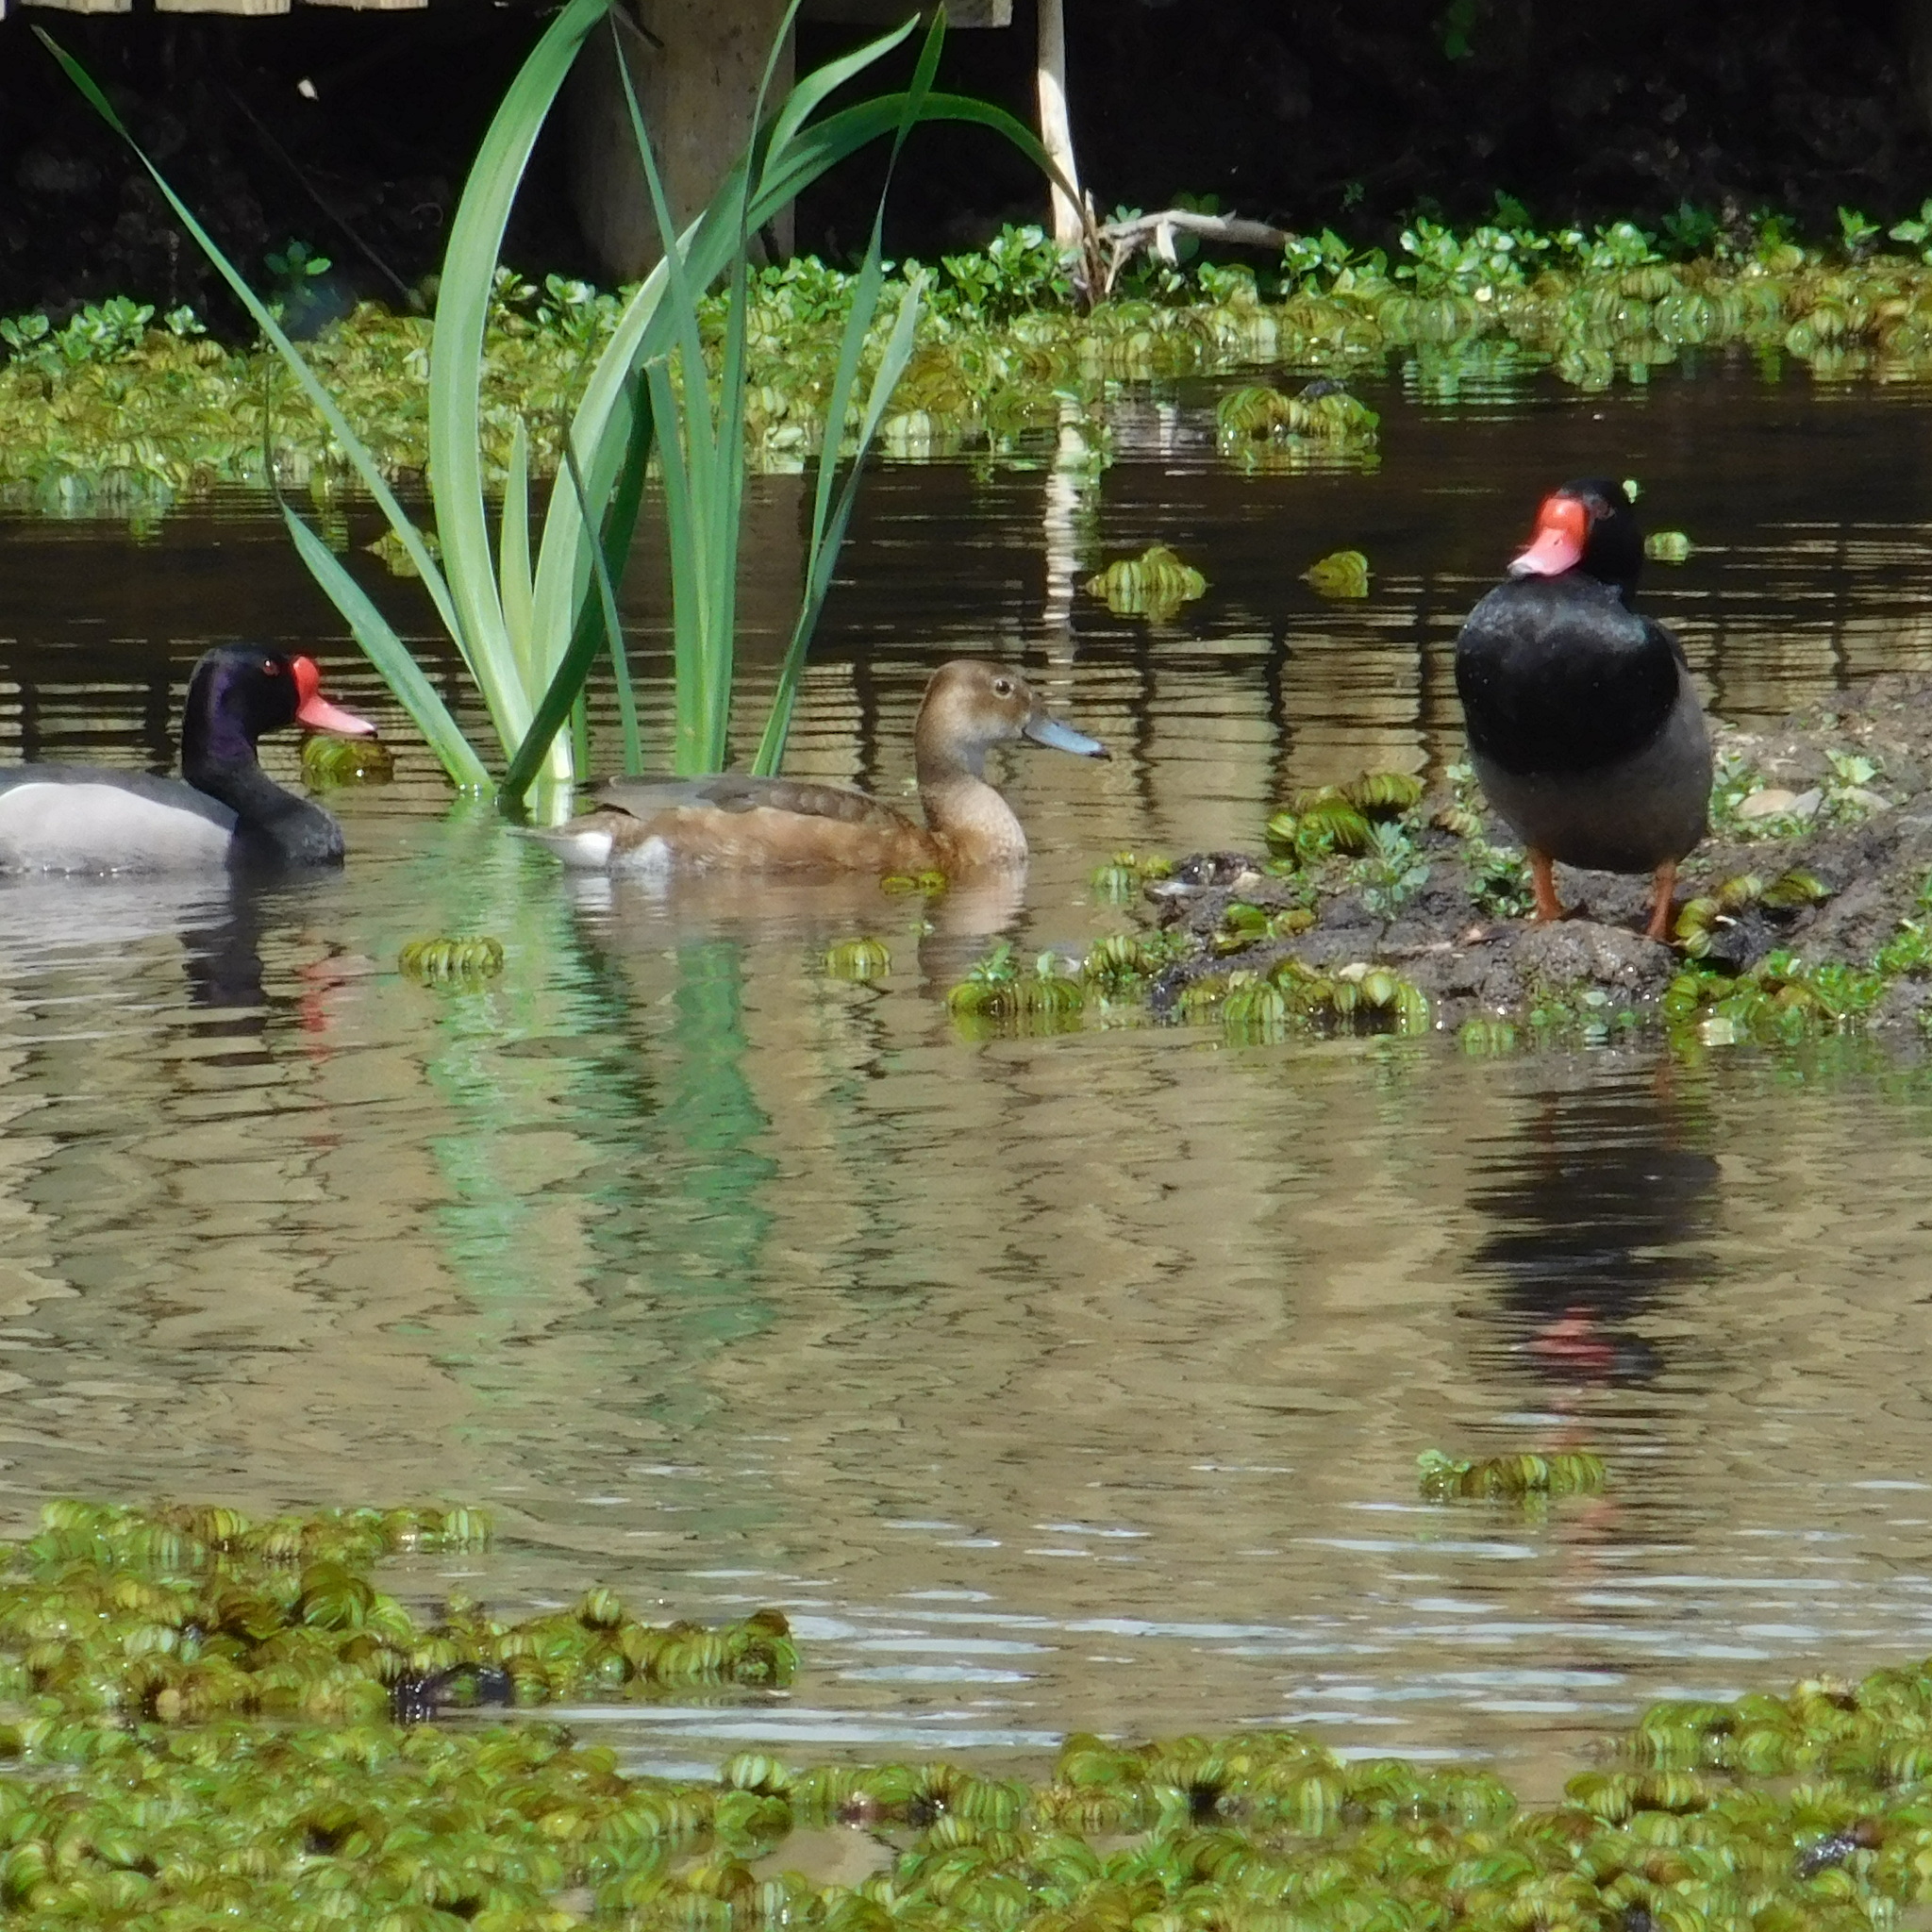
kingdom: Animalia
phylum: Chordata
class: Aves
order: Anseriformes
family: Anatidae
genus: Netta
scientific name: Netta peposaca
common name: Rosy-billed pochard
